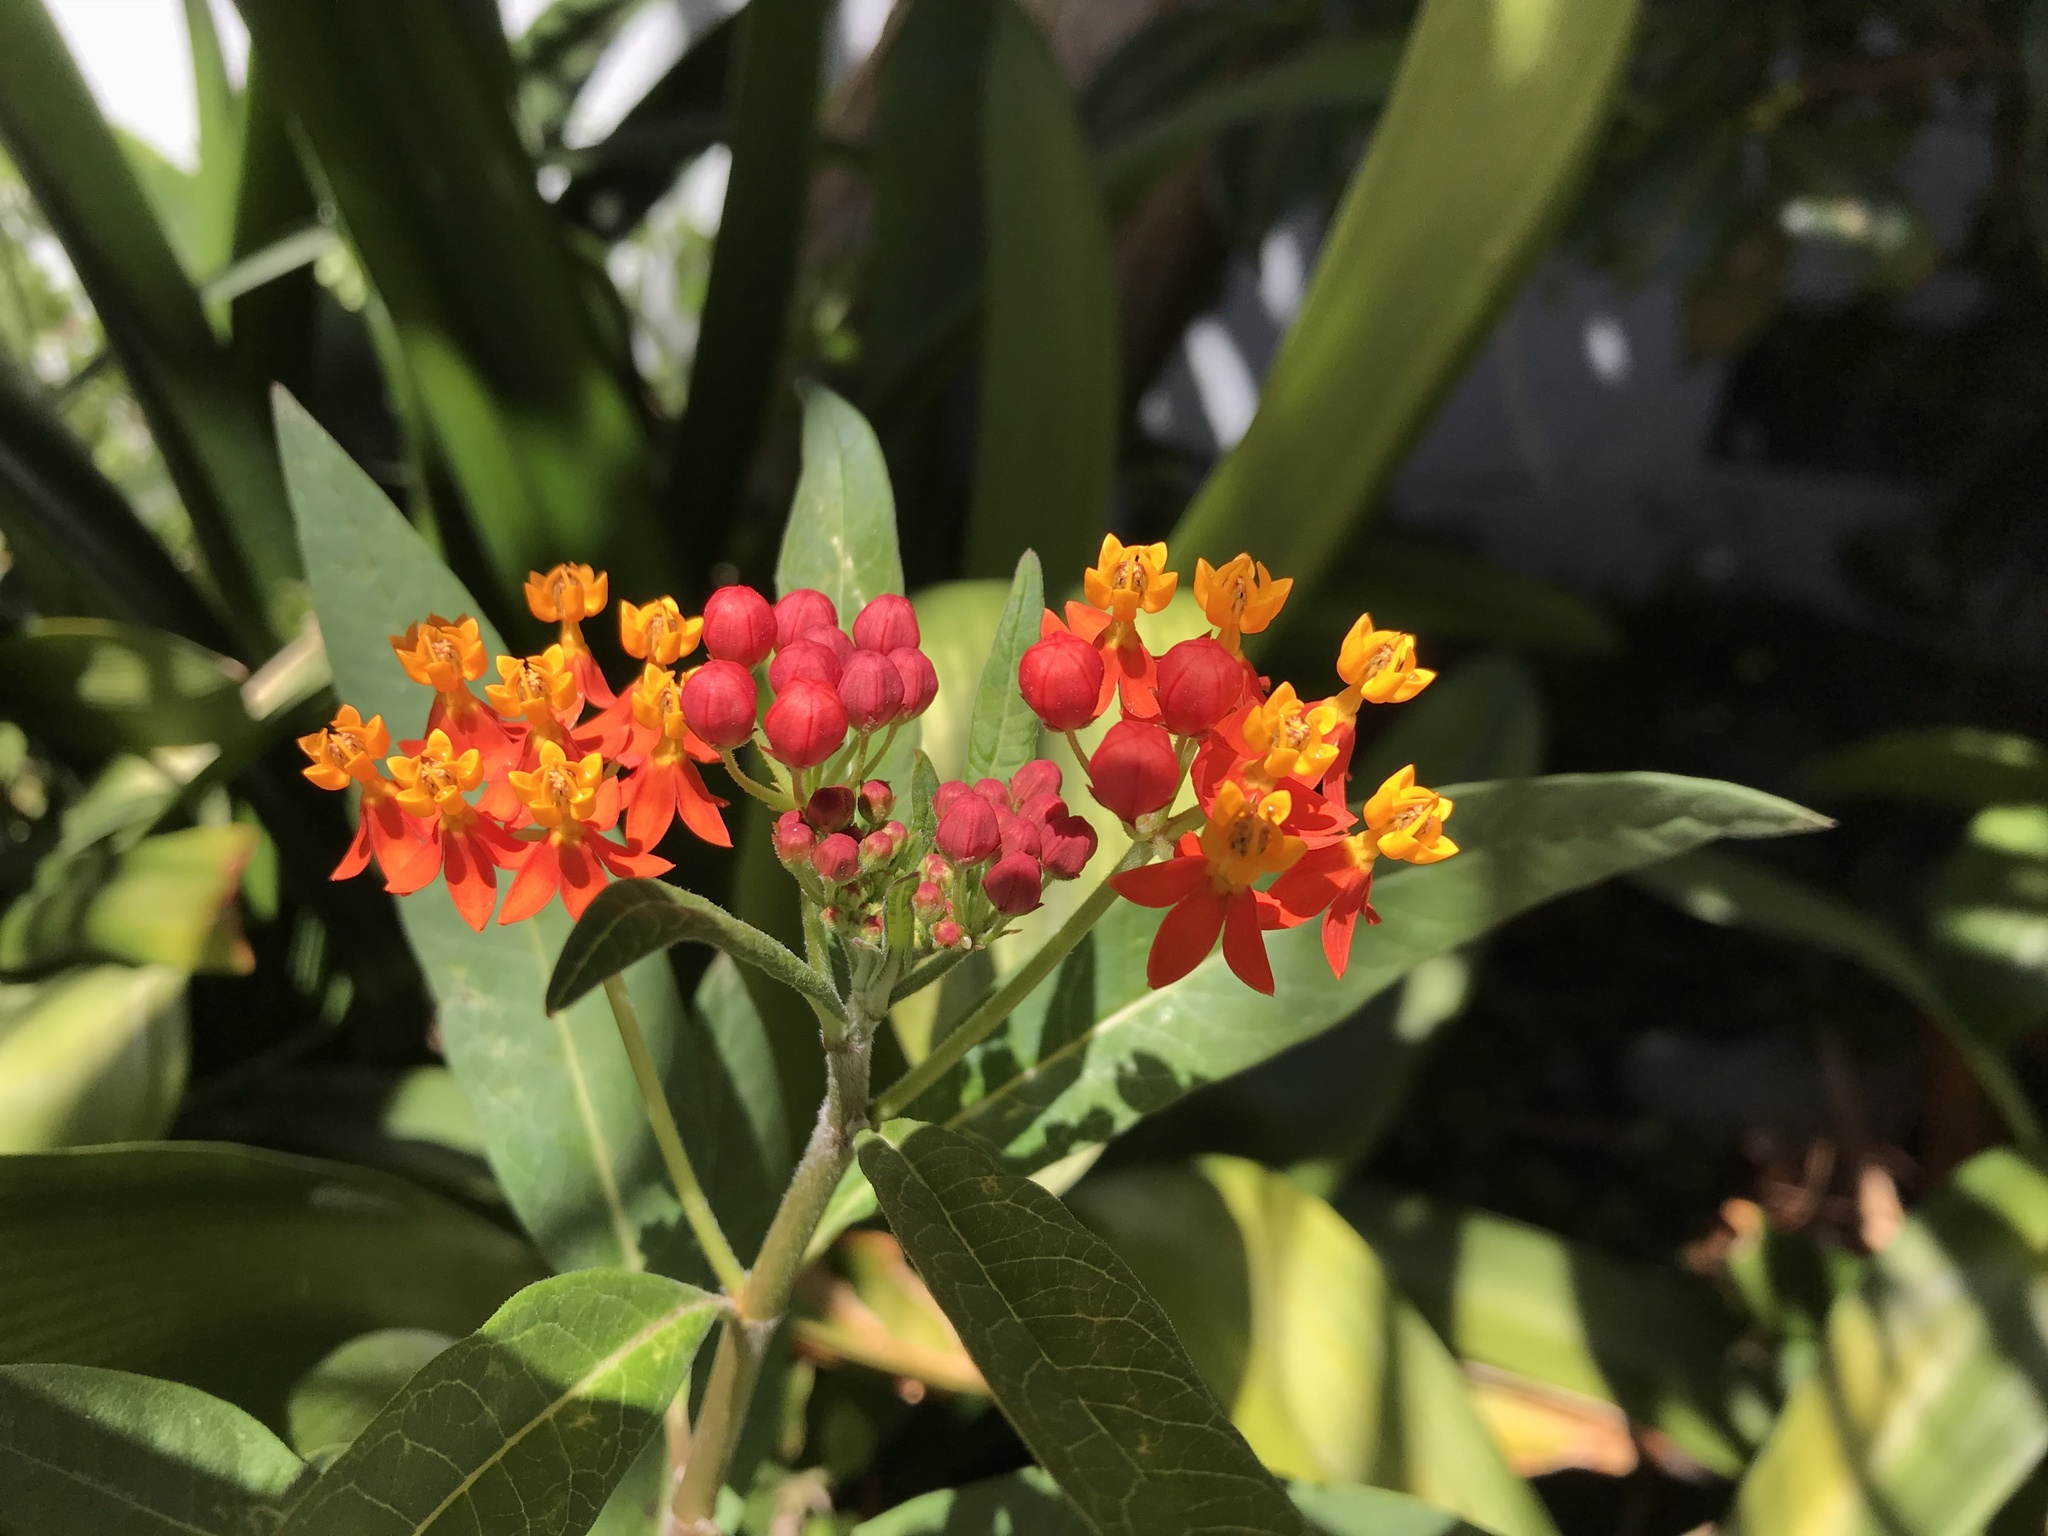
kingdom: Plantae
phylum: Tracheophyta
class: Magnoliopsida
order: Gentianales
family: Apocynaceae
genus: Asclepias
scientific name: Asclepias curassavica
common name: Bloodflower
